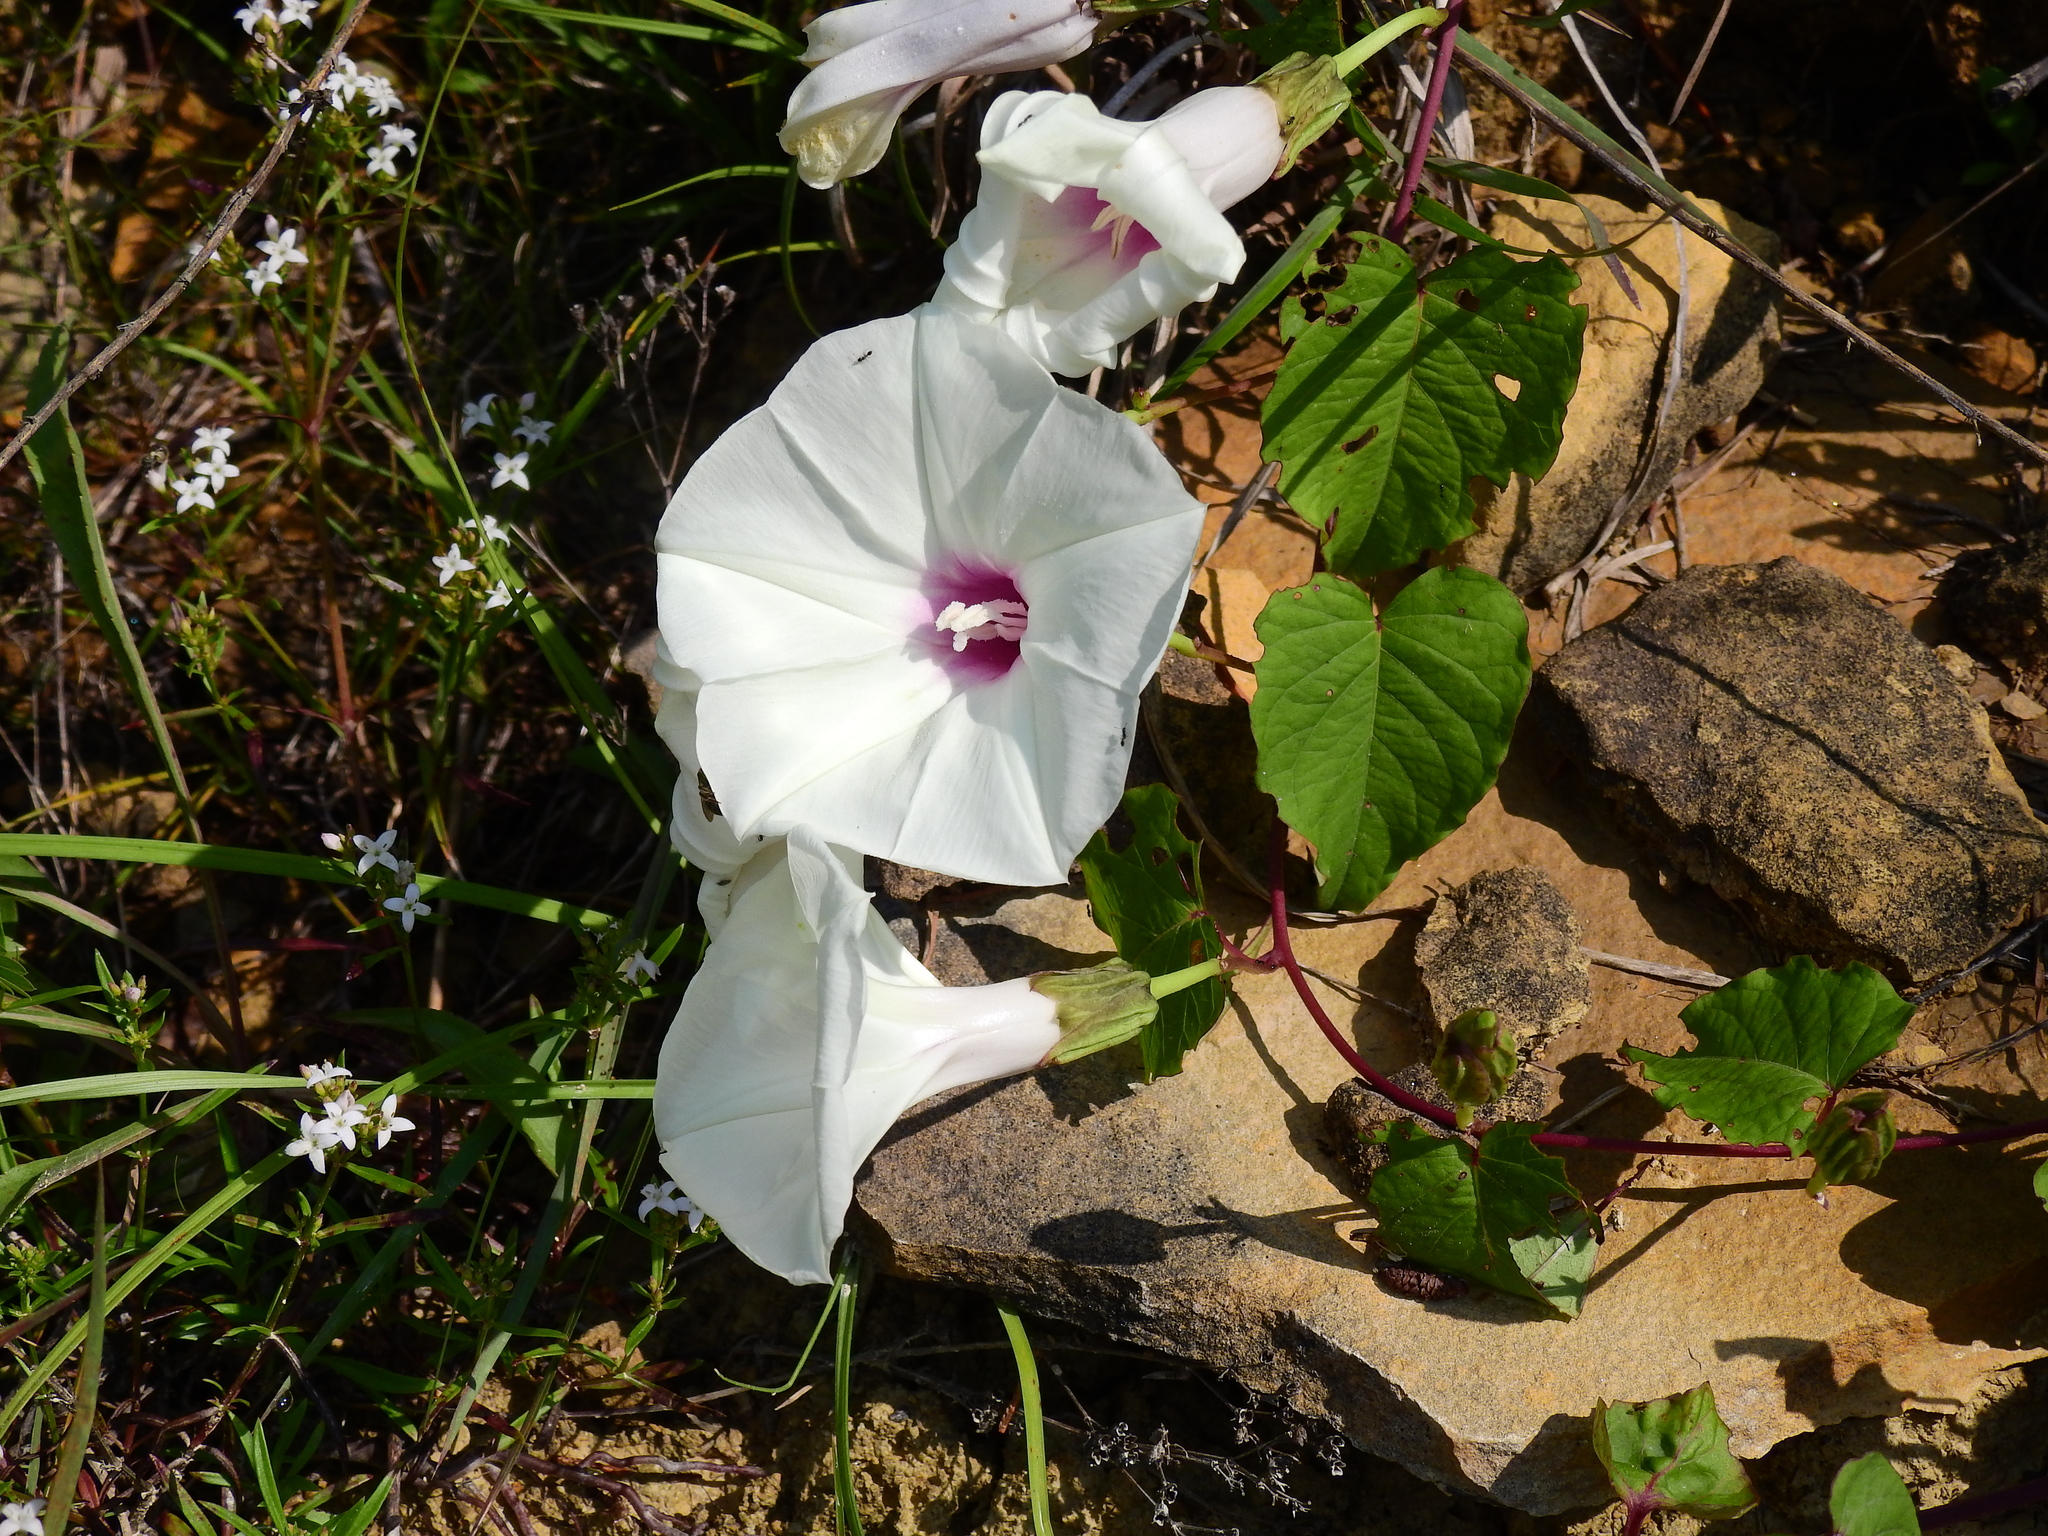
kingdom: Plantae
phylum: Tracheophyta
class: Magnoliopsida
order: Solanales
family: Convolvulaceae
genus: Ipomoea
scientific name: Ipomoea pandurata
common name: Man-of-the-earth
